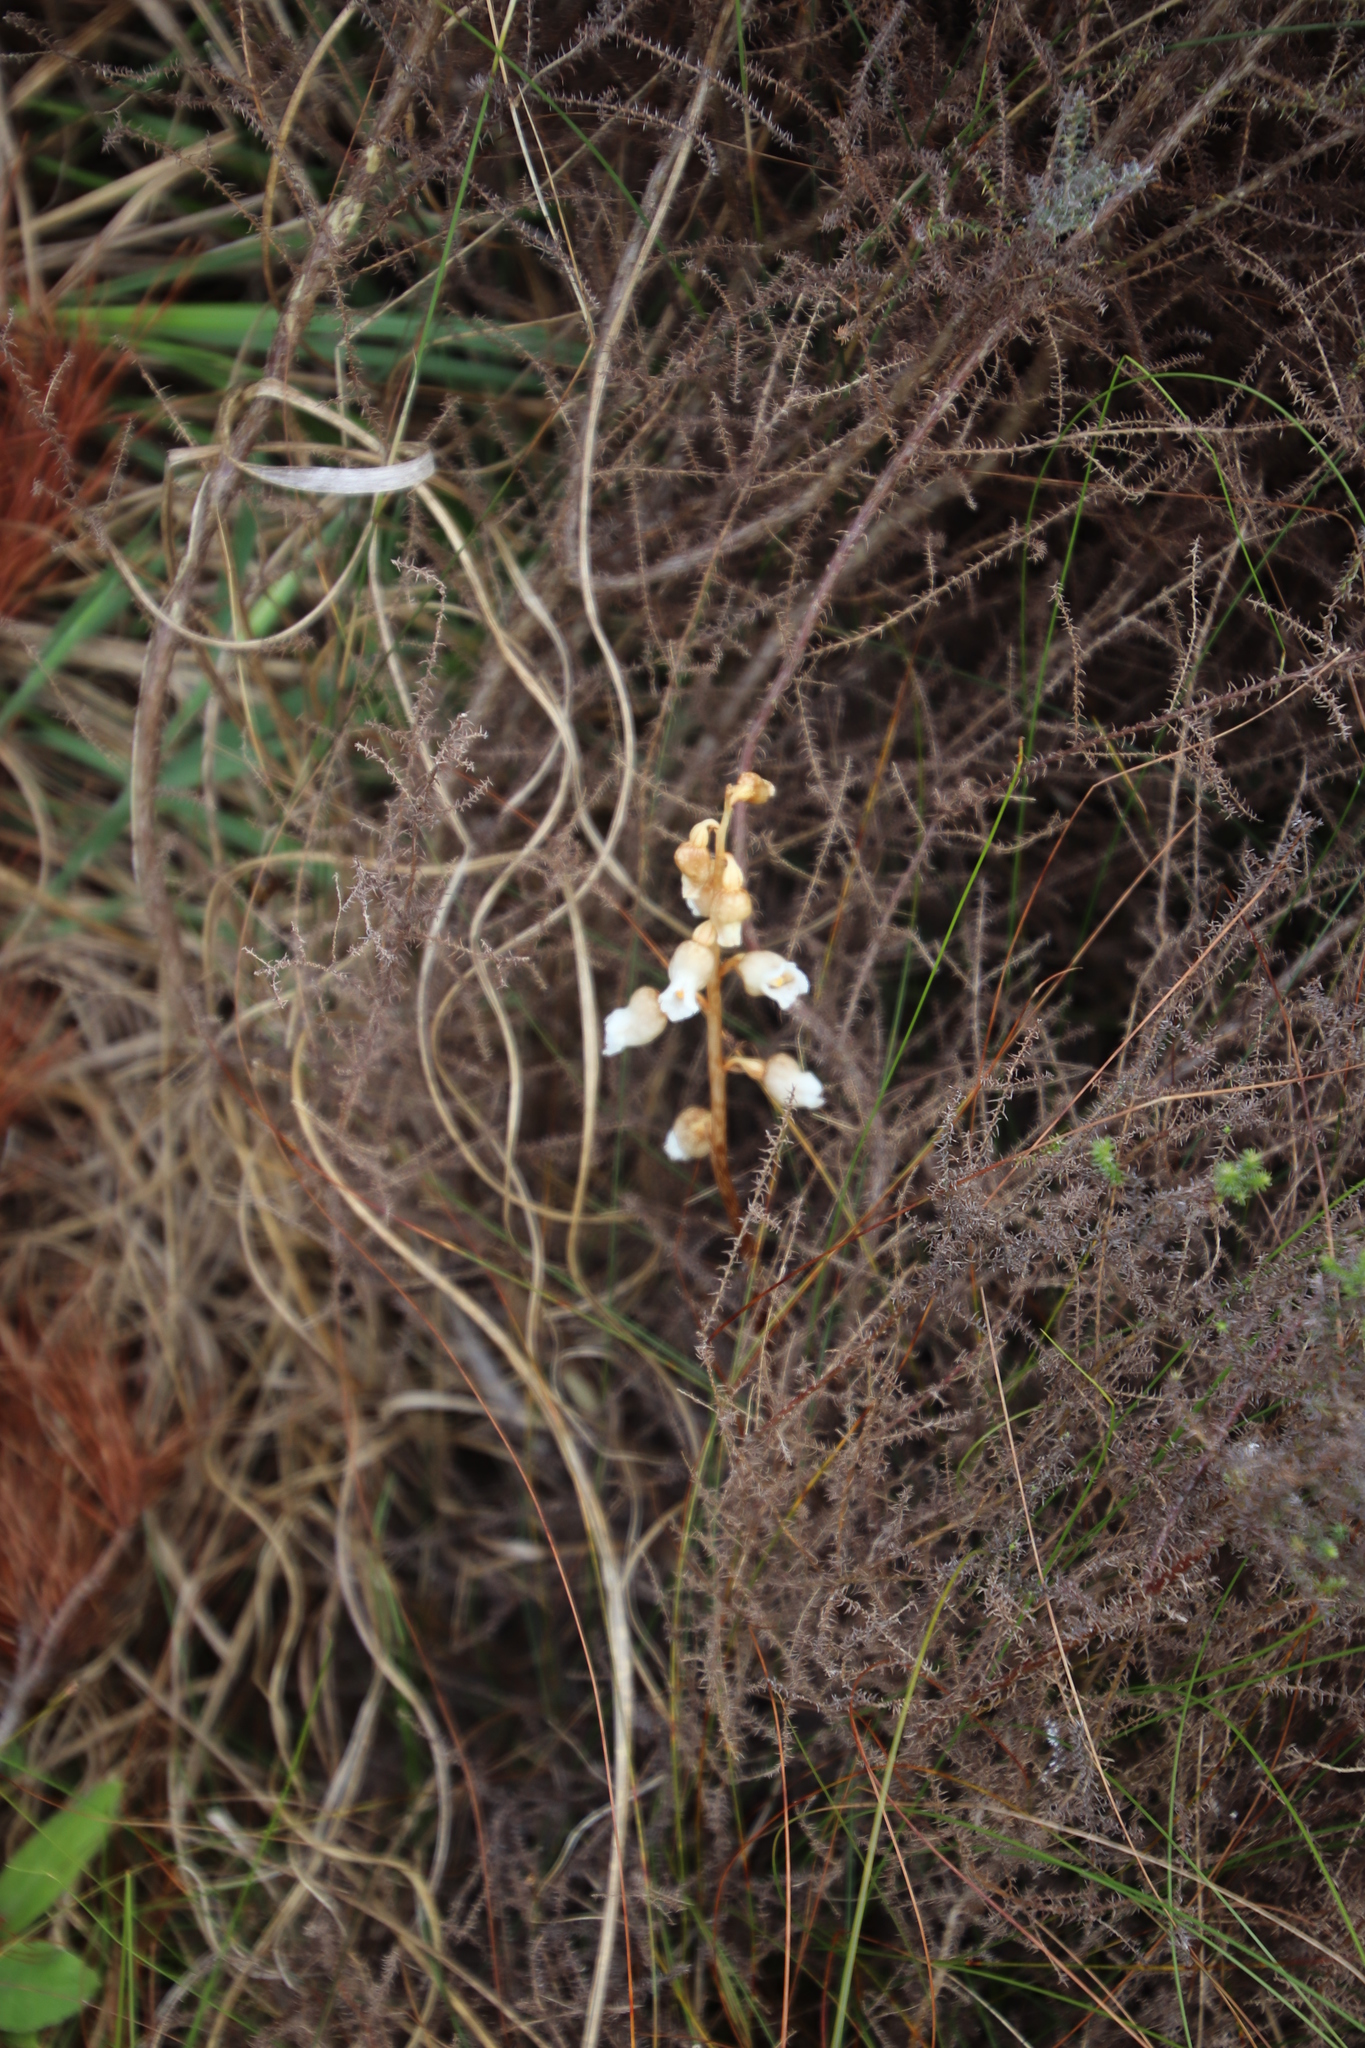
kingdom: Plantae
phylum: Tracheophyta
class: Liliopsida
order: Asparagales
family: Orchidaceae
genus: Gastrodia
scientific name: Gastrodia sesamoides
